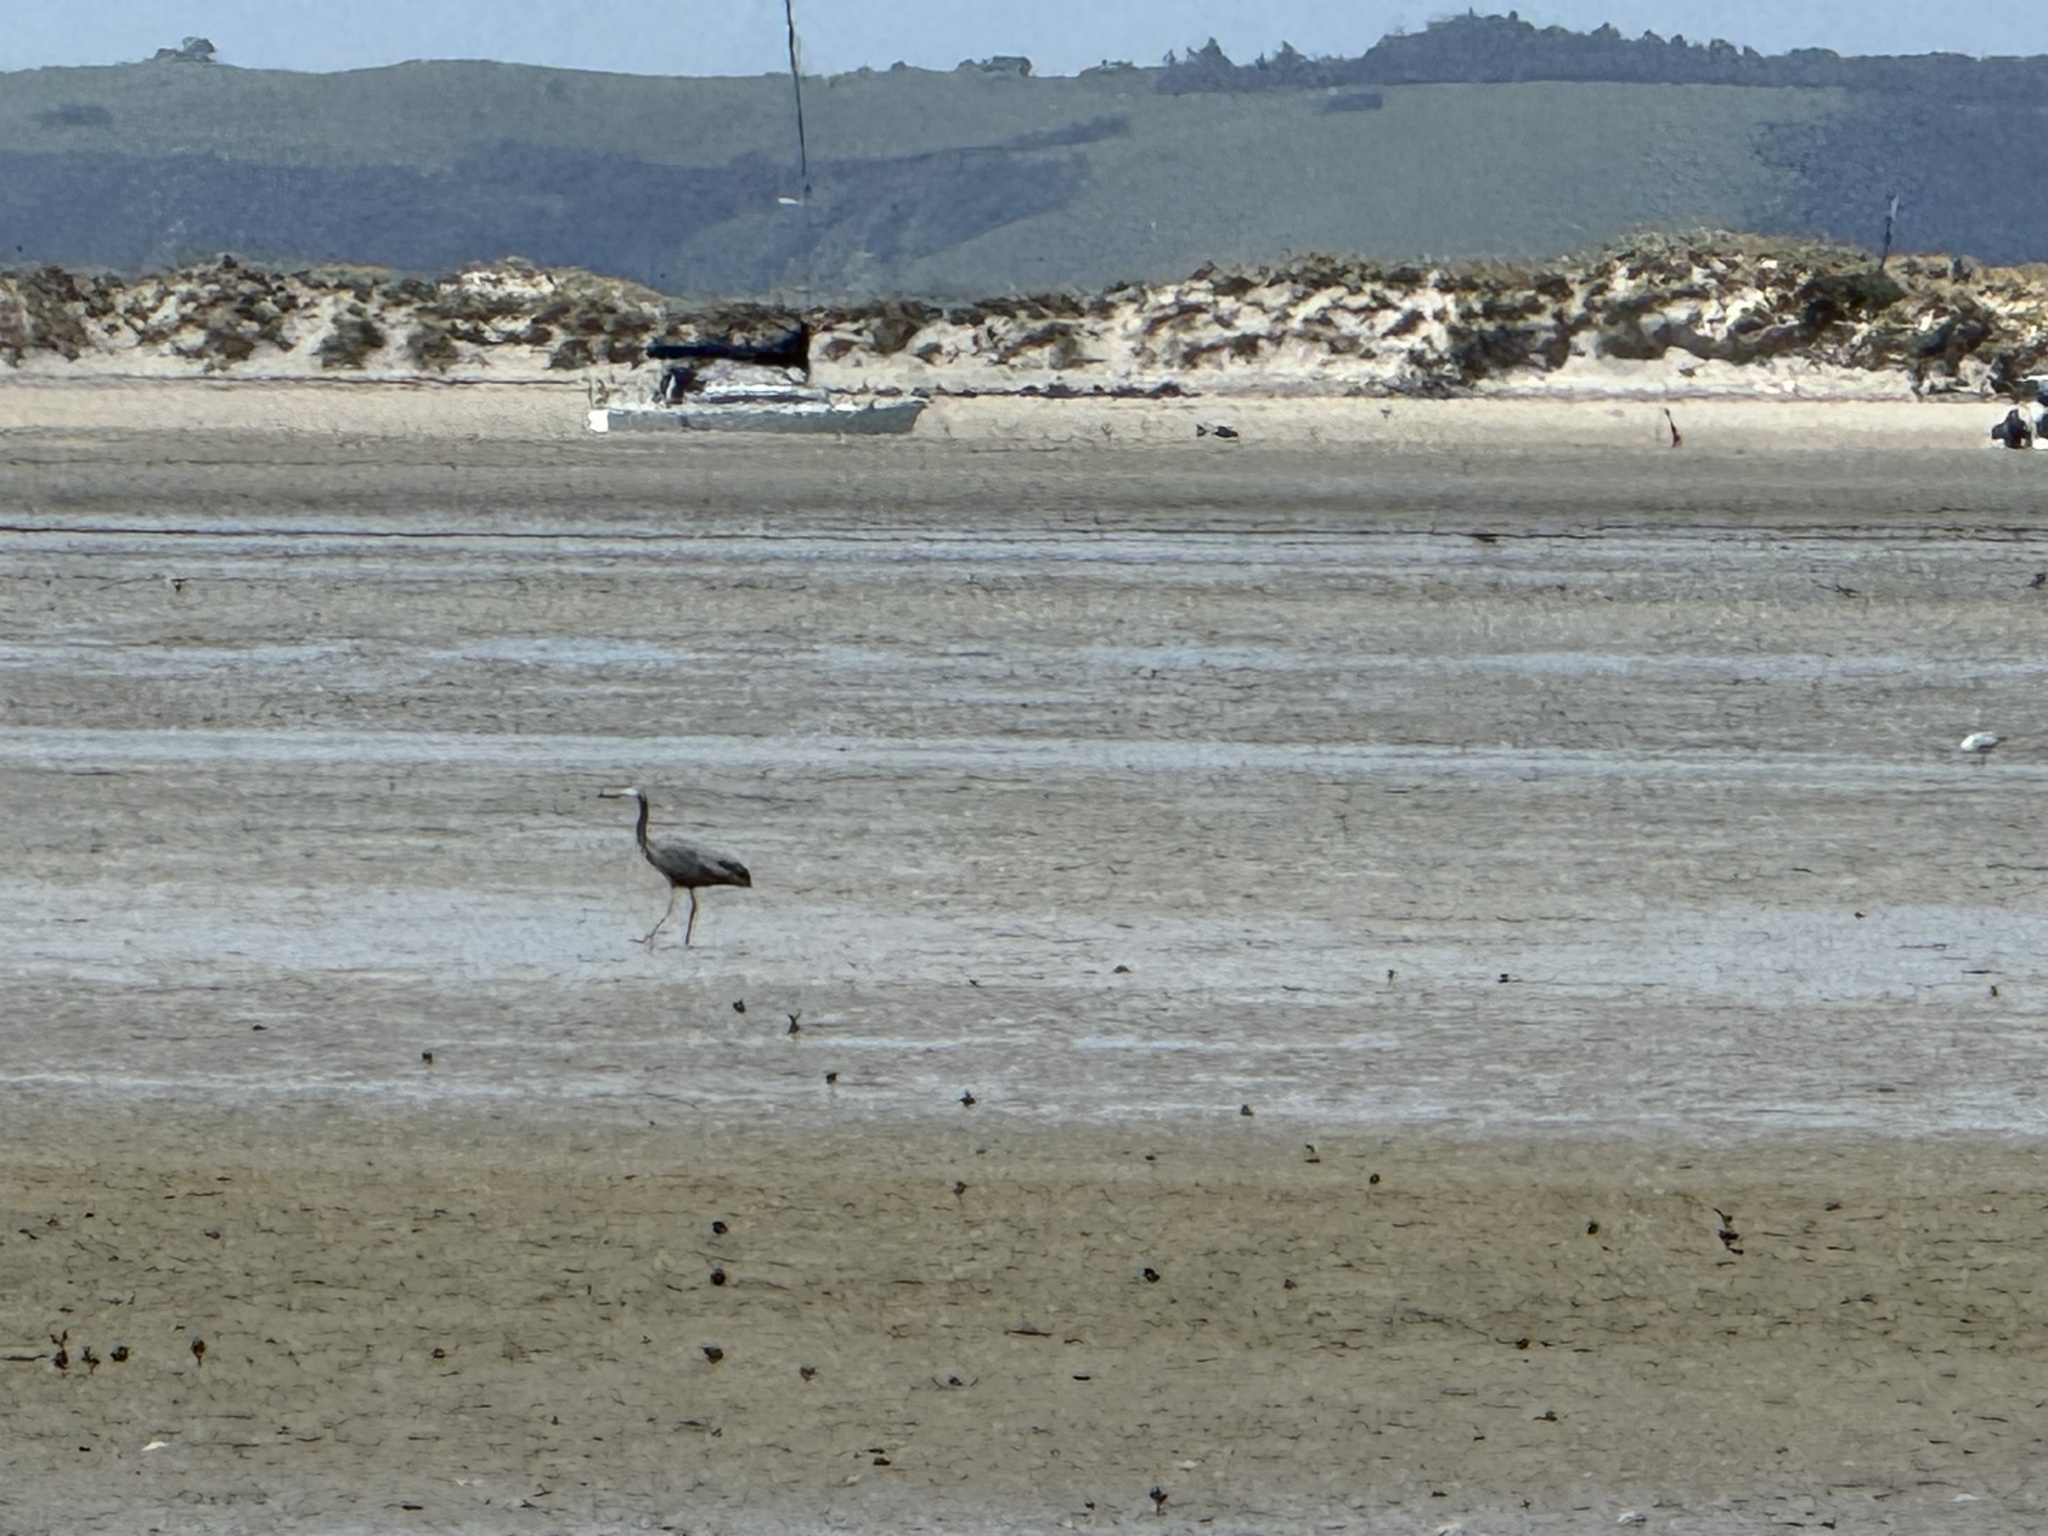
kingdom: Animalia
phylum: Chordata
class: Aves
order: Pelecaniformes
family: Ardeidae
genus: Egretta
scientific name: Egretta novaehollandiae
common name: White-faced heron
